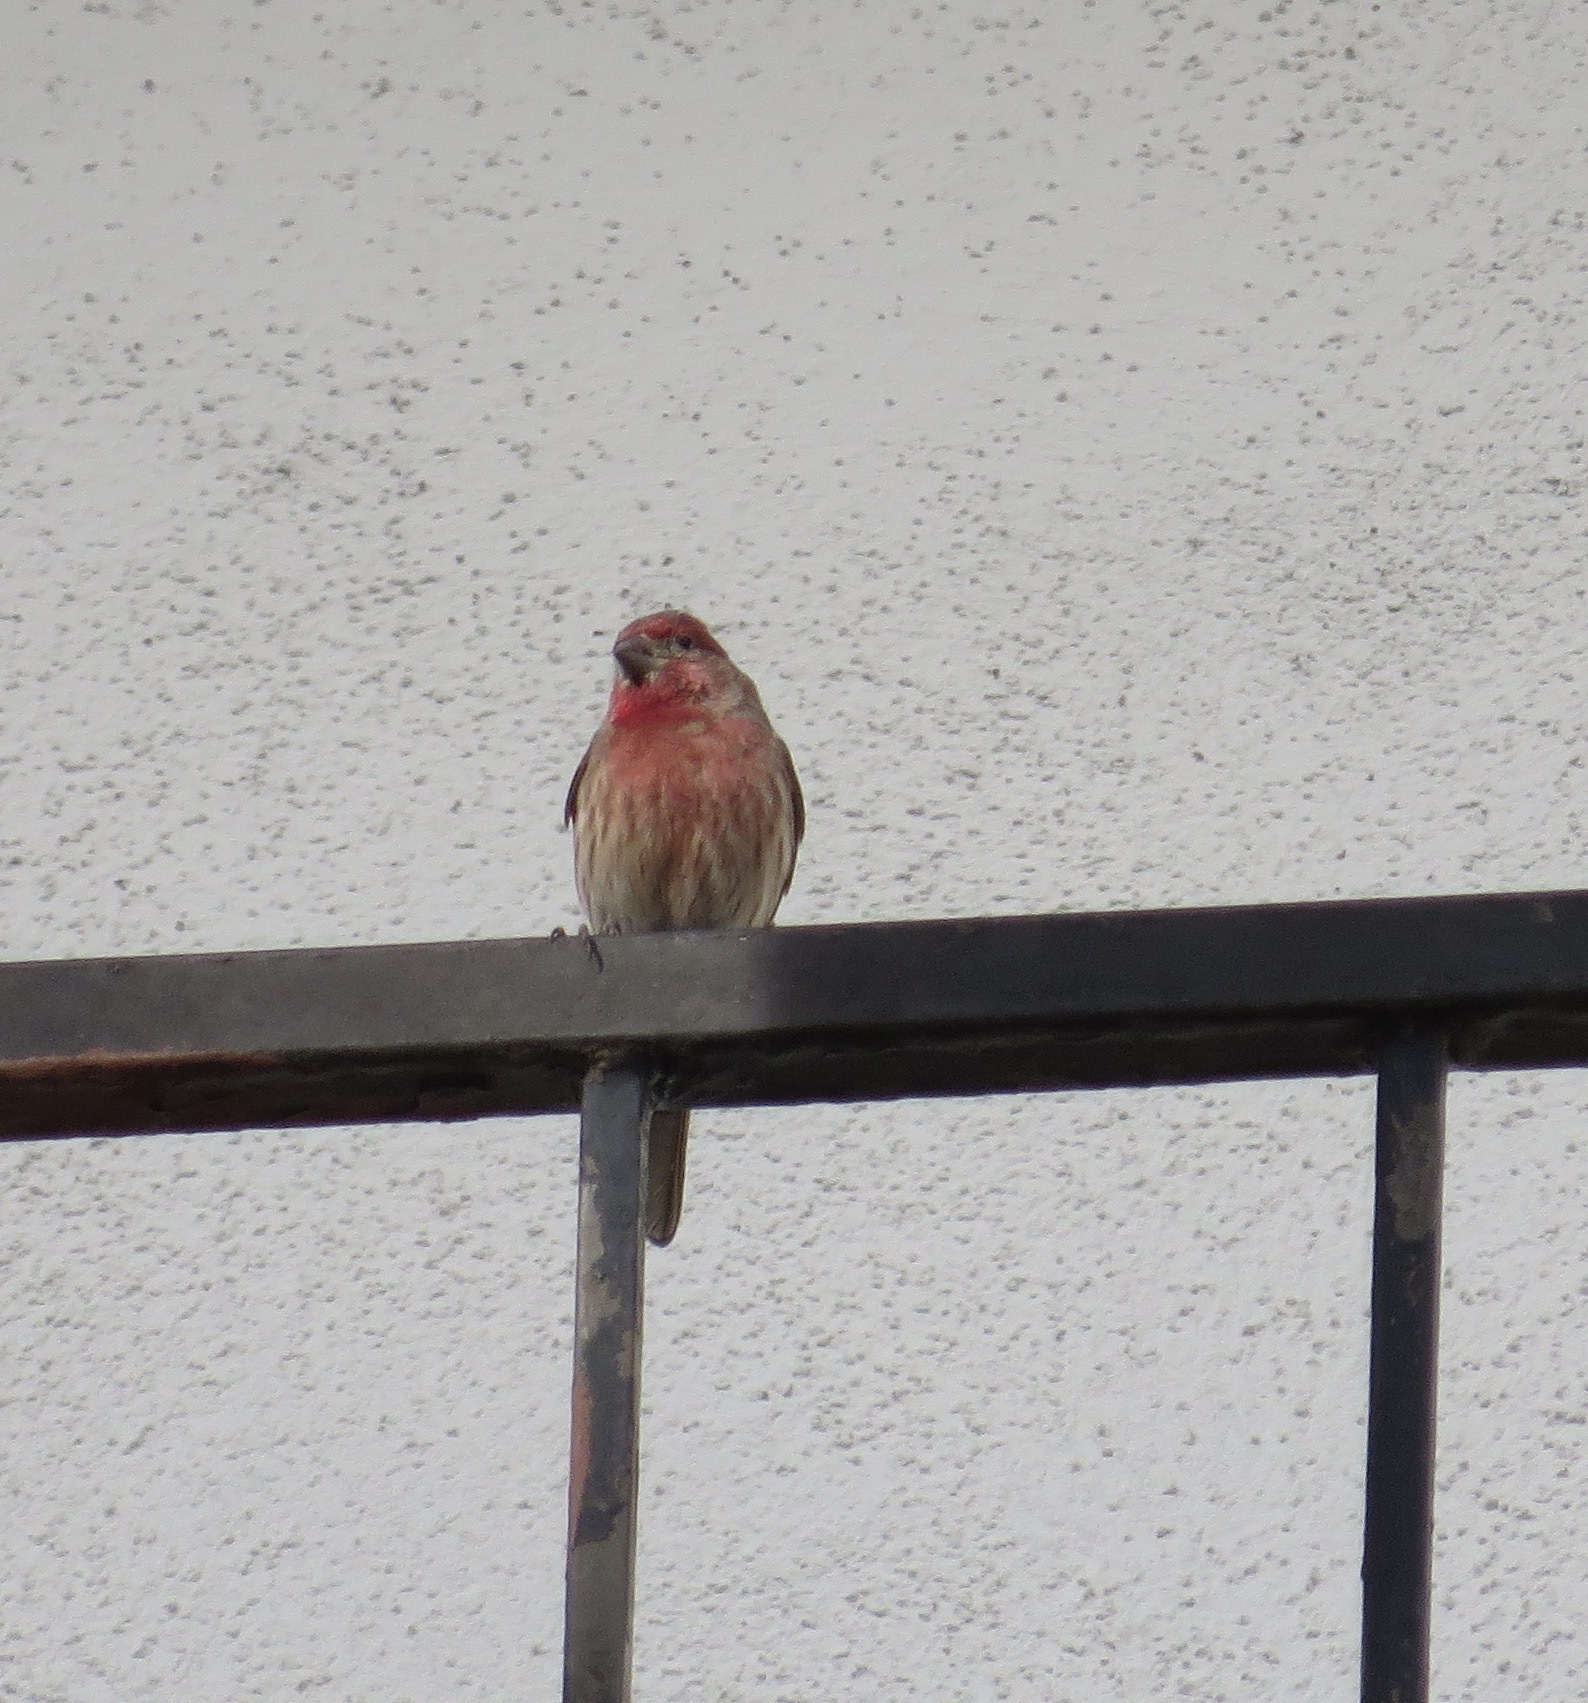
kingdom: Animalia
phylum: Chordata
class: Aves
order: Passeriformes
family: Fringillidae
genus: Haemorhous
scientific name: Haemorhous mexicanus
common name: House finch
